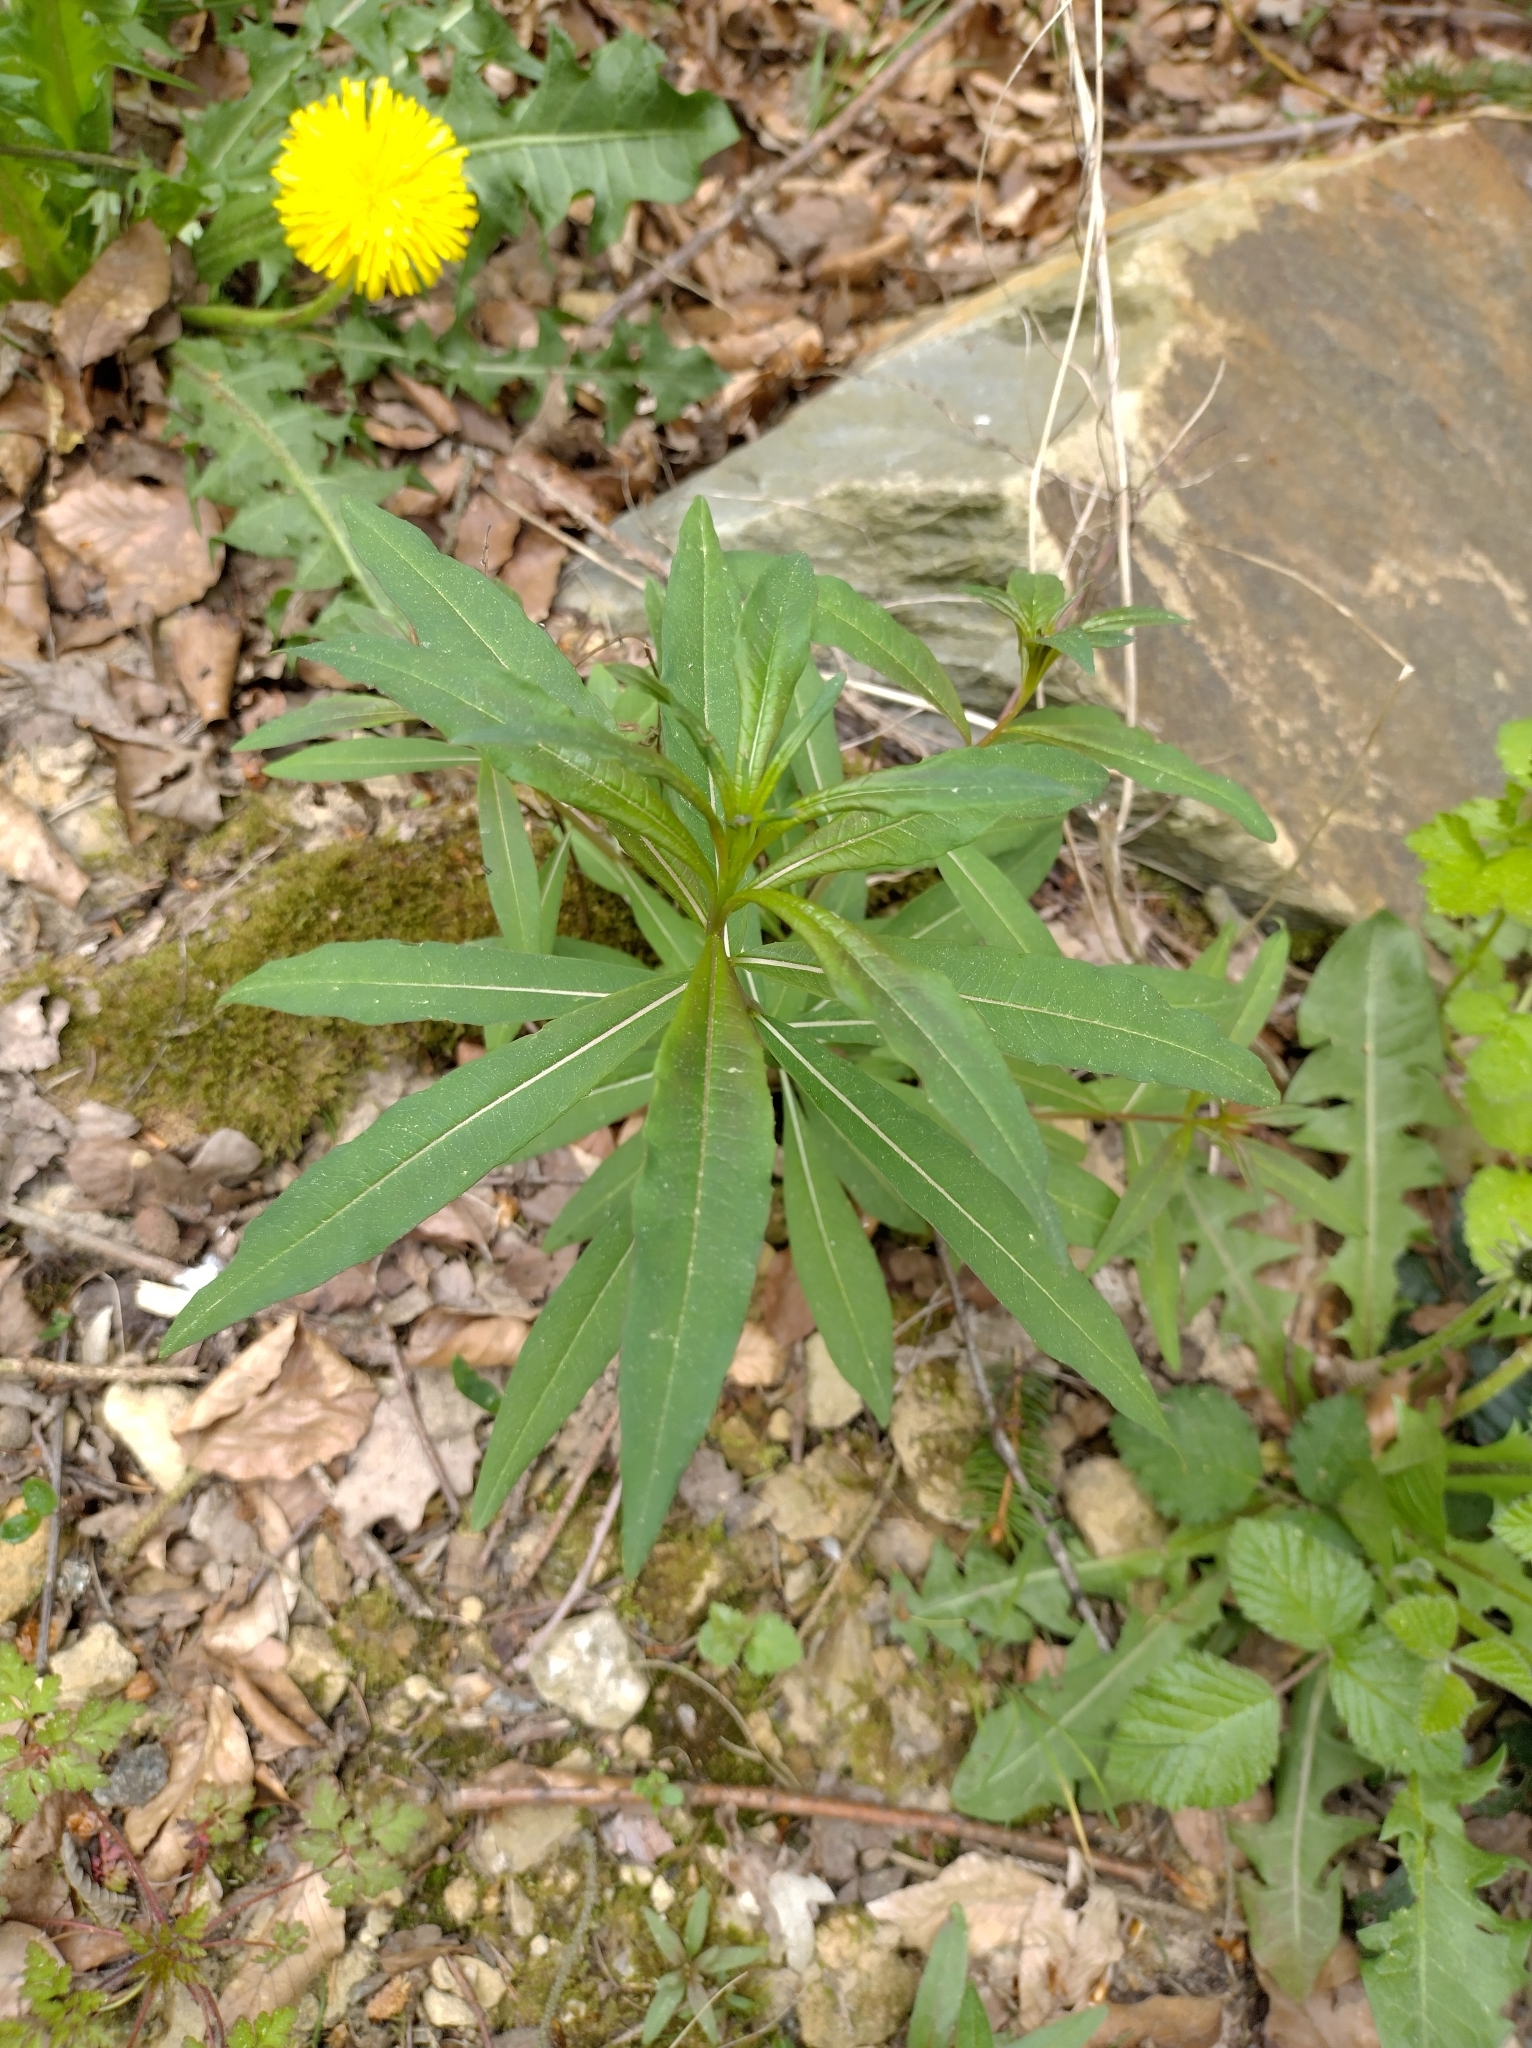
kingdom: Plantae
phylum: Tracheophyta
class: Magnoliopsida
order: Myrtales
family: Onagraceae
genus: Chamaenerion
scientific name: Chamaenerion angustifolium
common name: Fireweed
